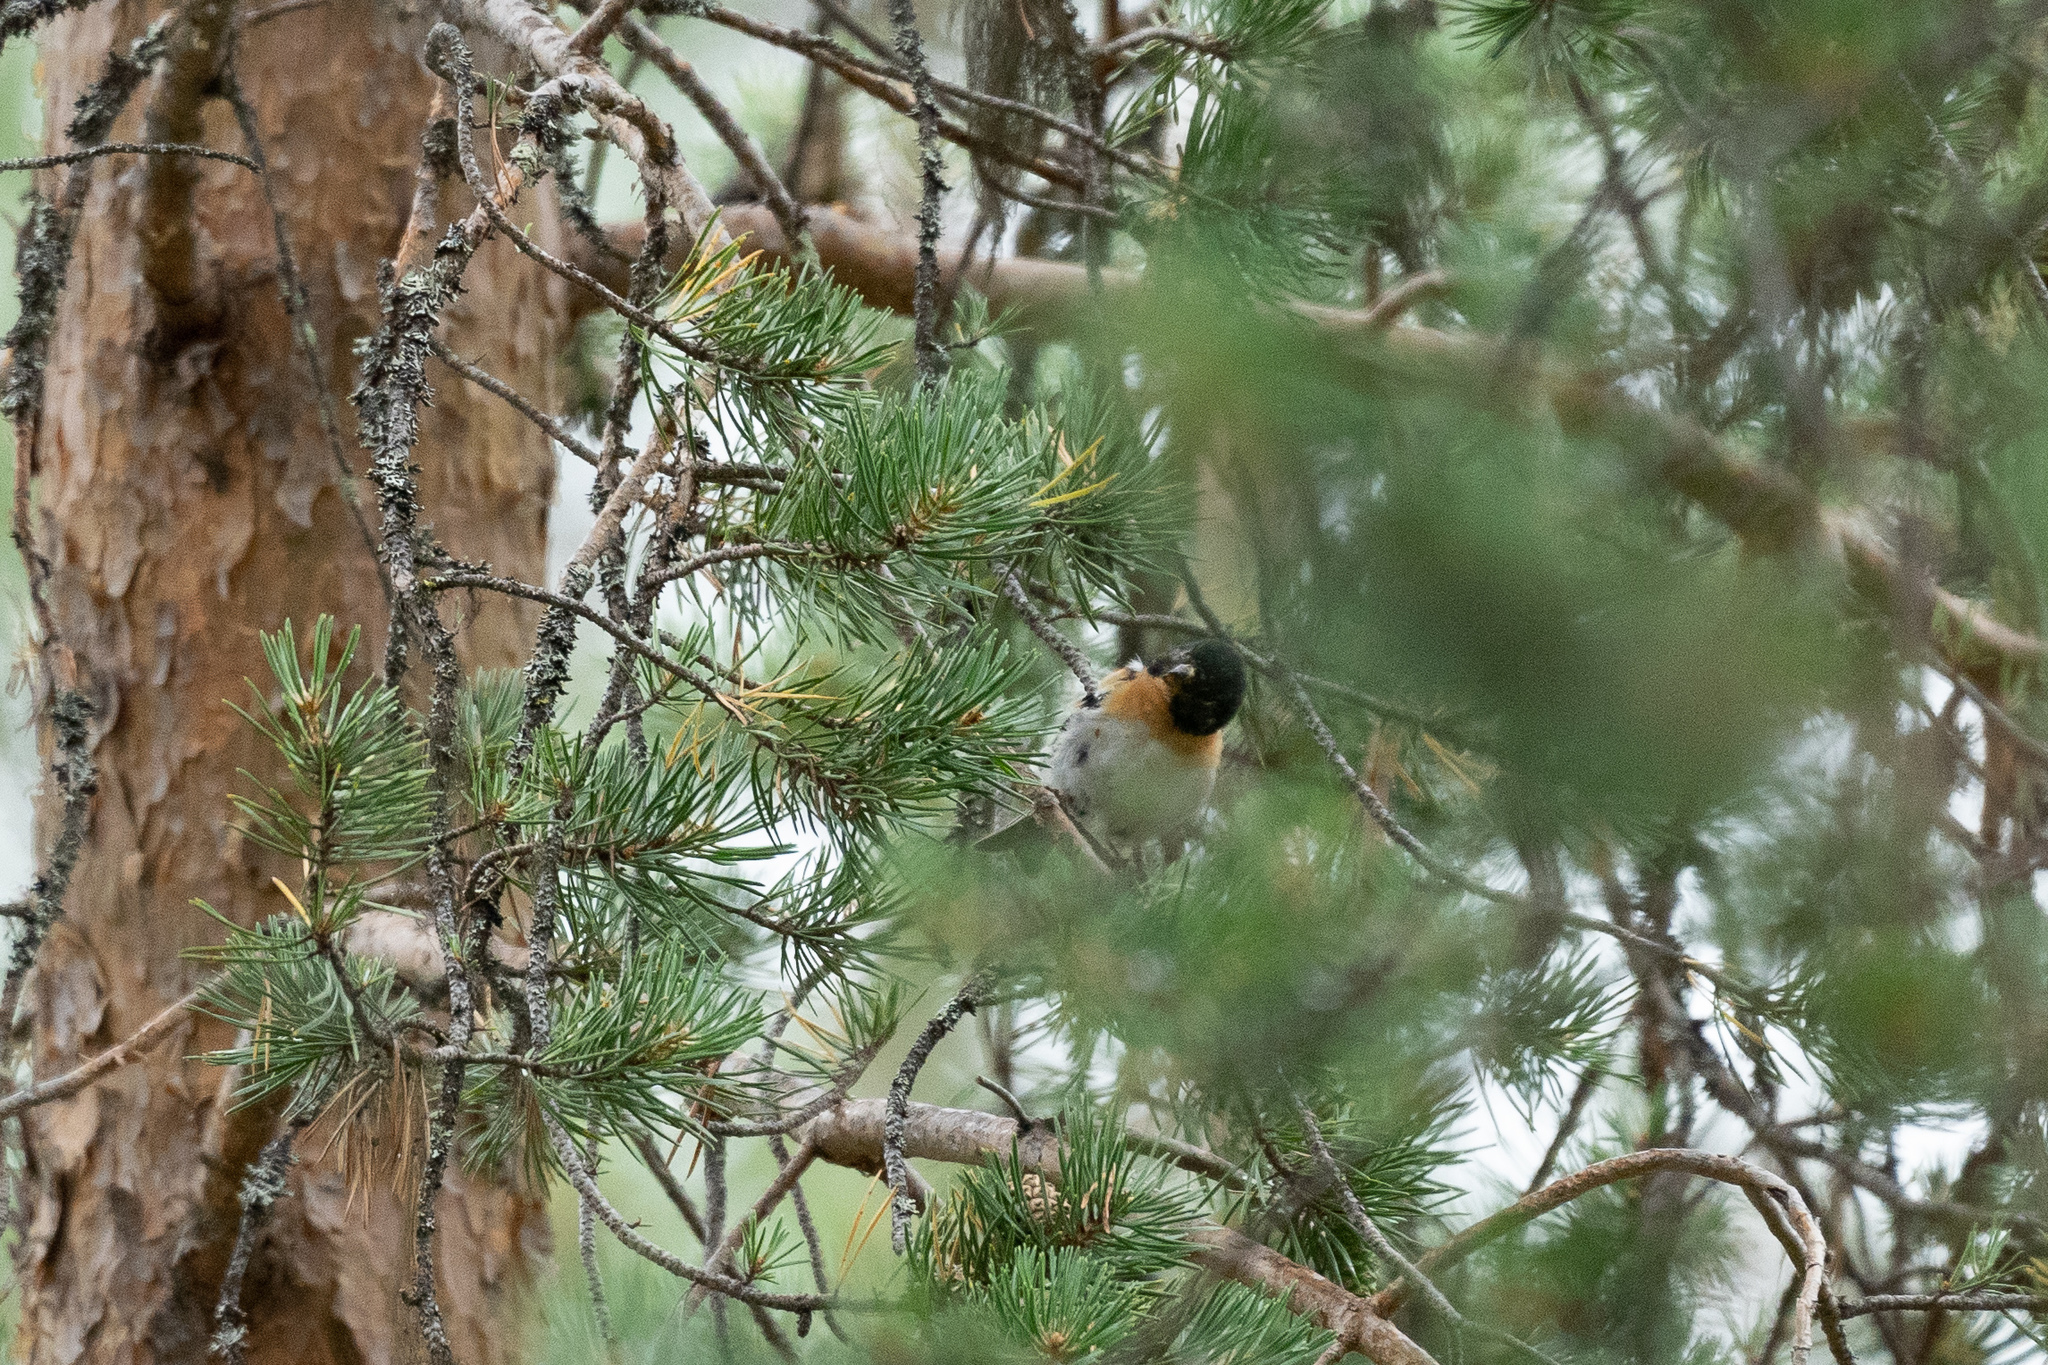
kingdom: Animalia
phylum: Chordata
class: Aves
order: Passeriformes
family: Fringillidae
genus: Fringilla
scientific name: Fringilla montifringilla
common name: Brambling
